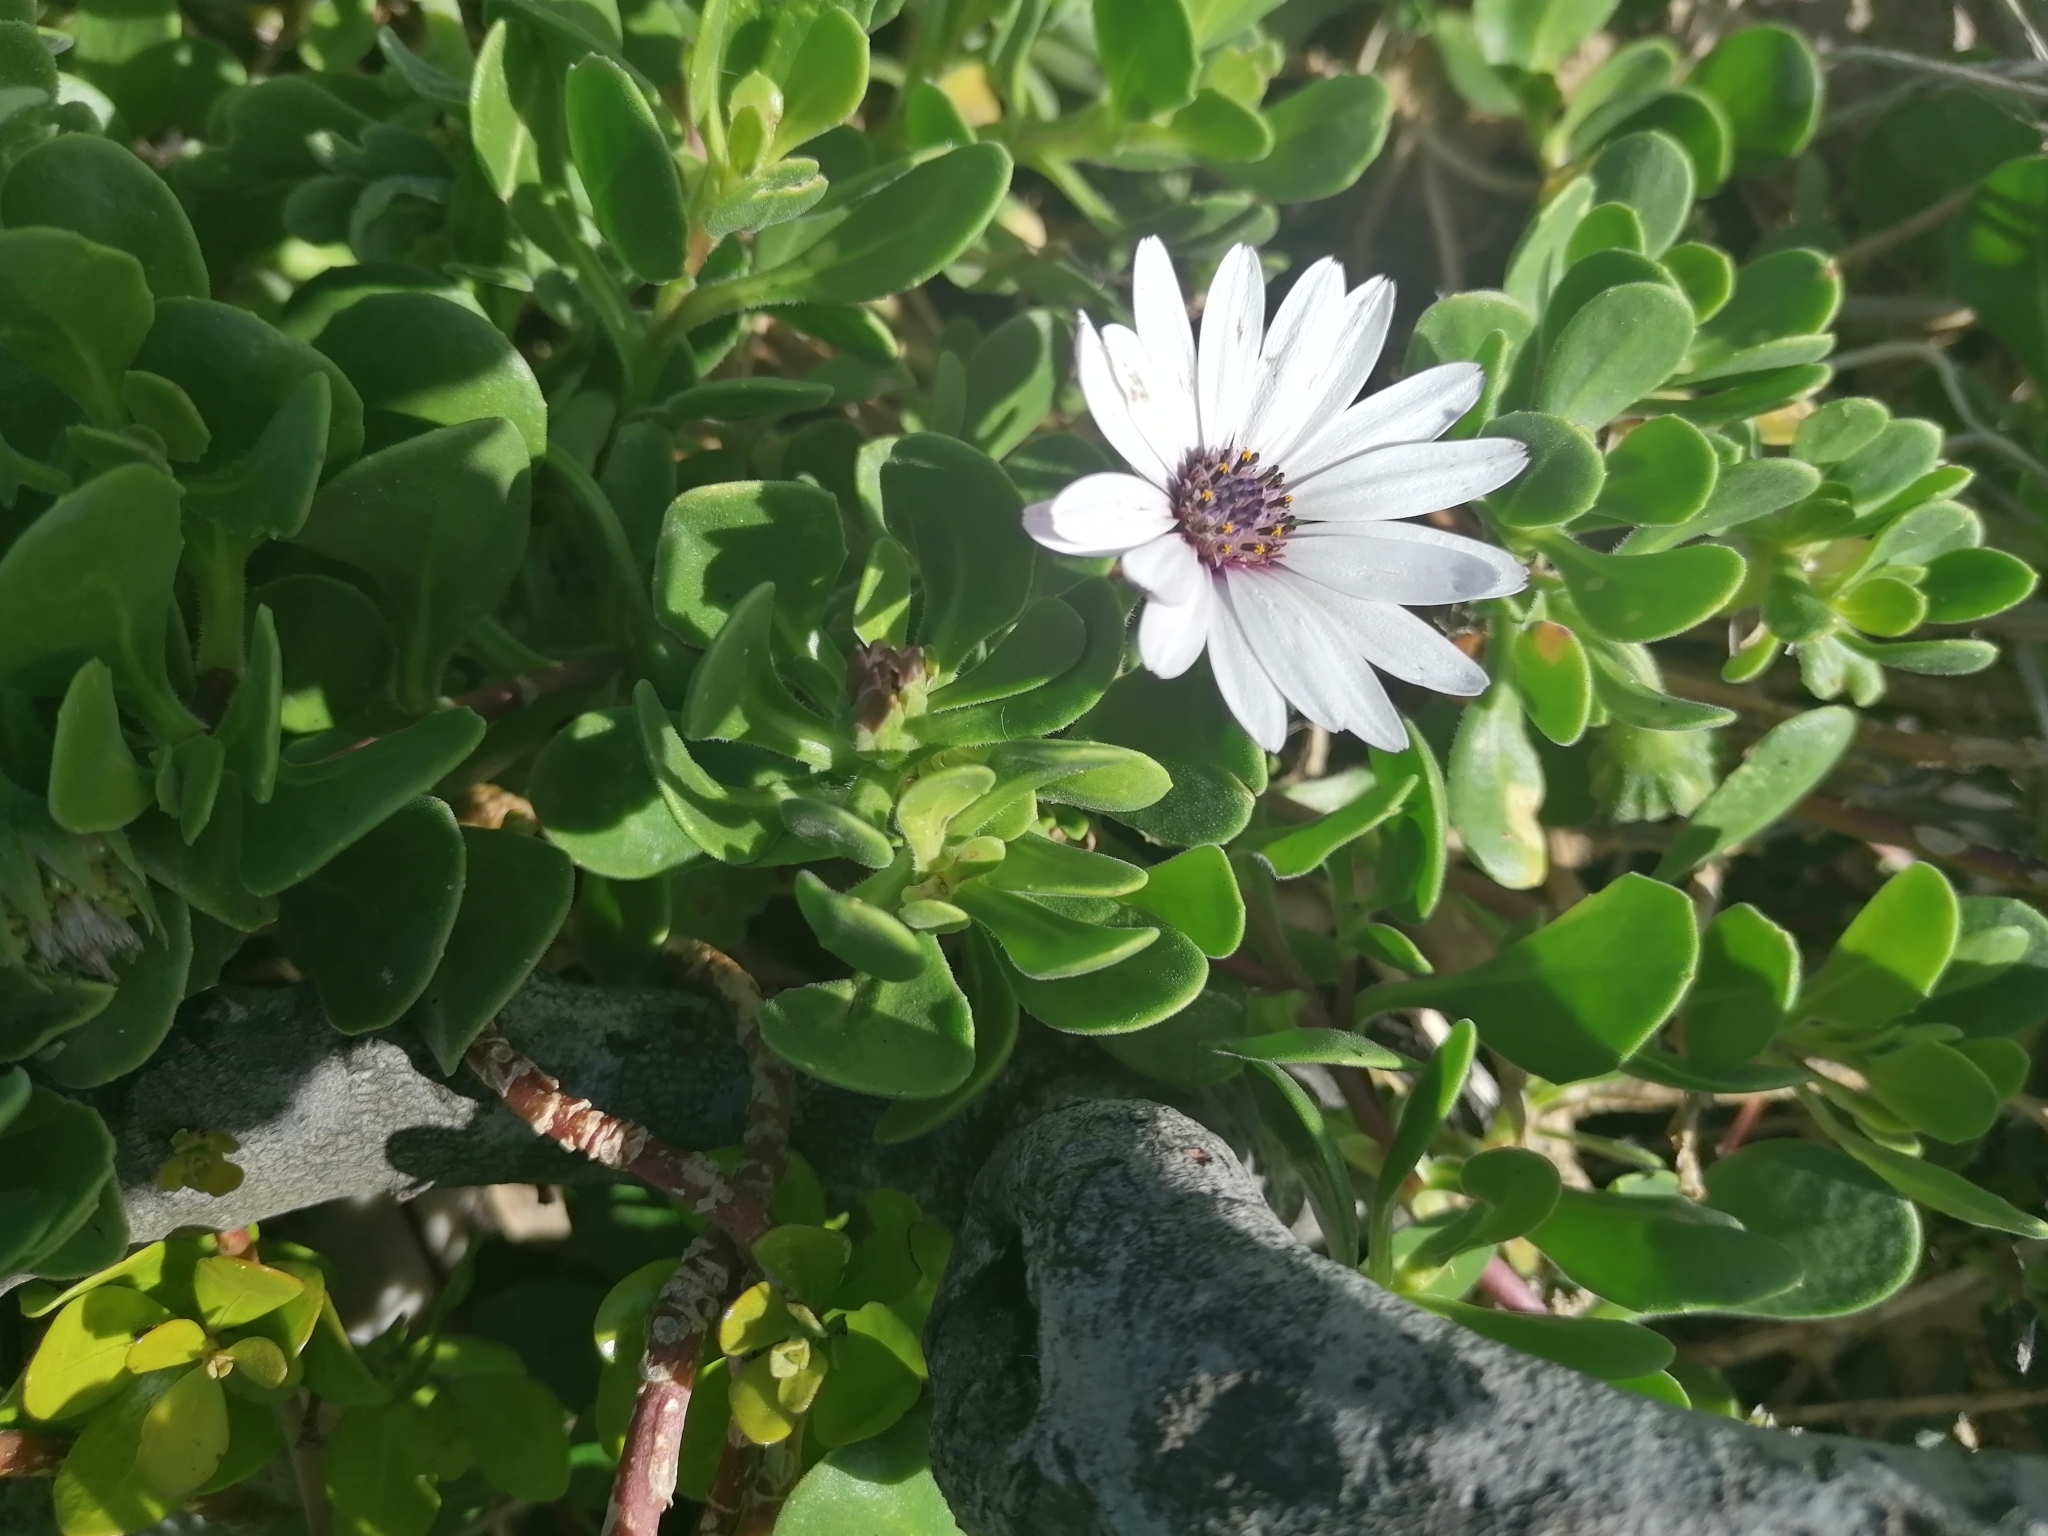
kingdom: Plantae
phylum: Tracheophyta
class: Magnoliopsida
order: Asterales
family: Asteraceae
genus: Dimorphotheca
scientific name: Dimorphotheca fruticosa
